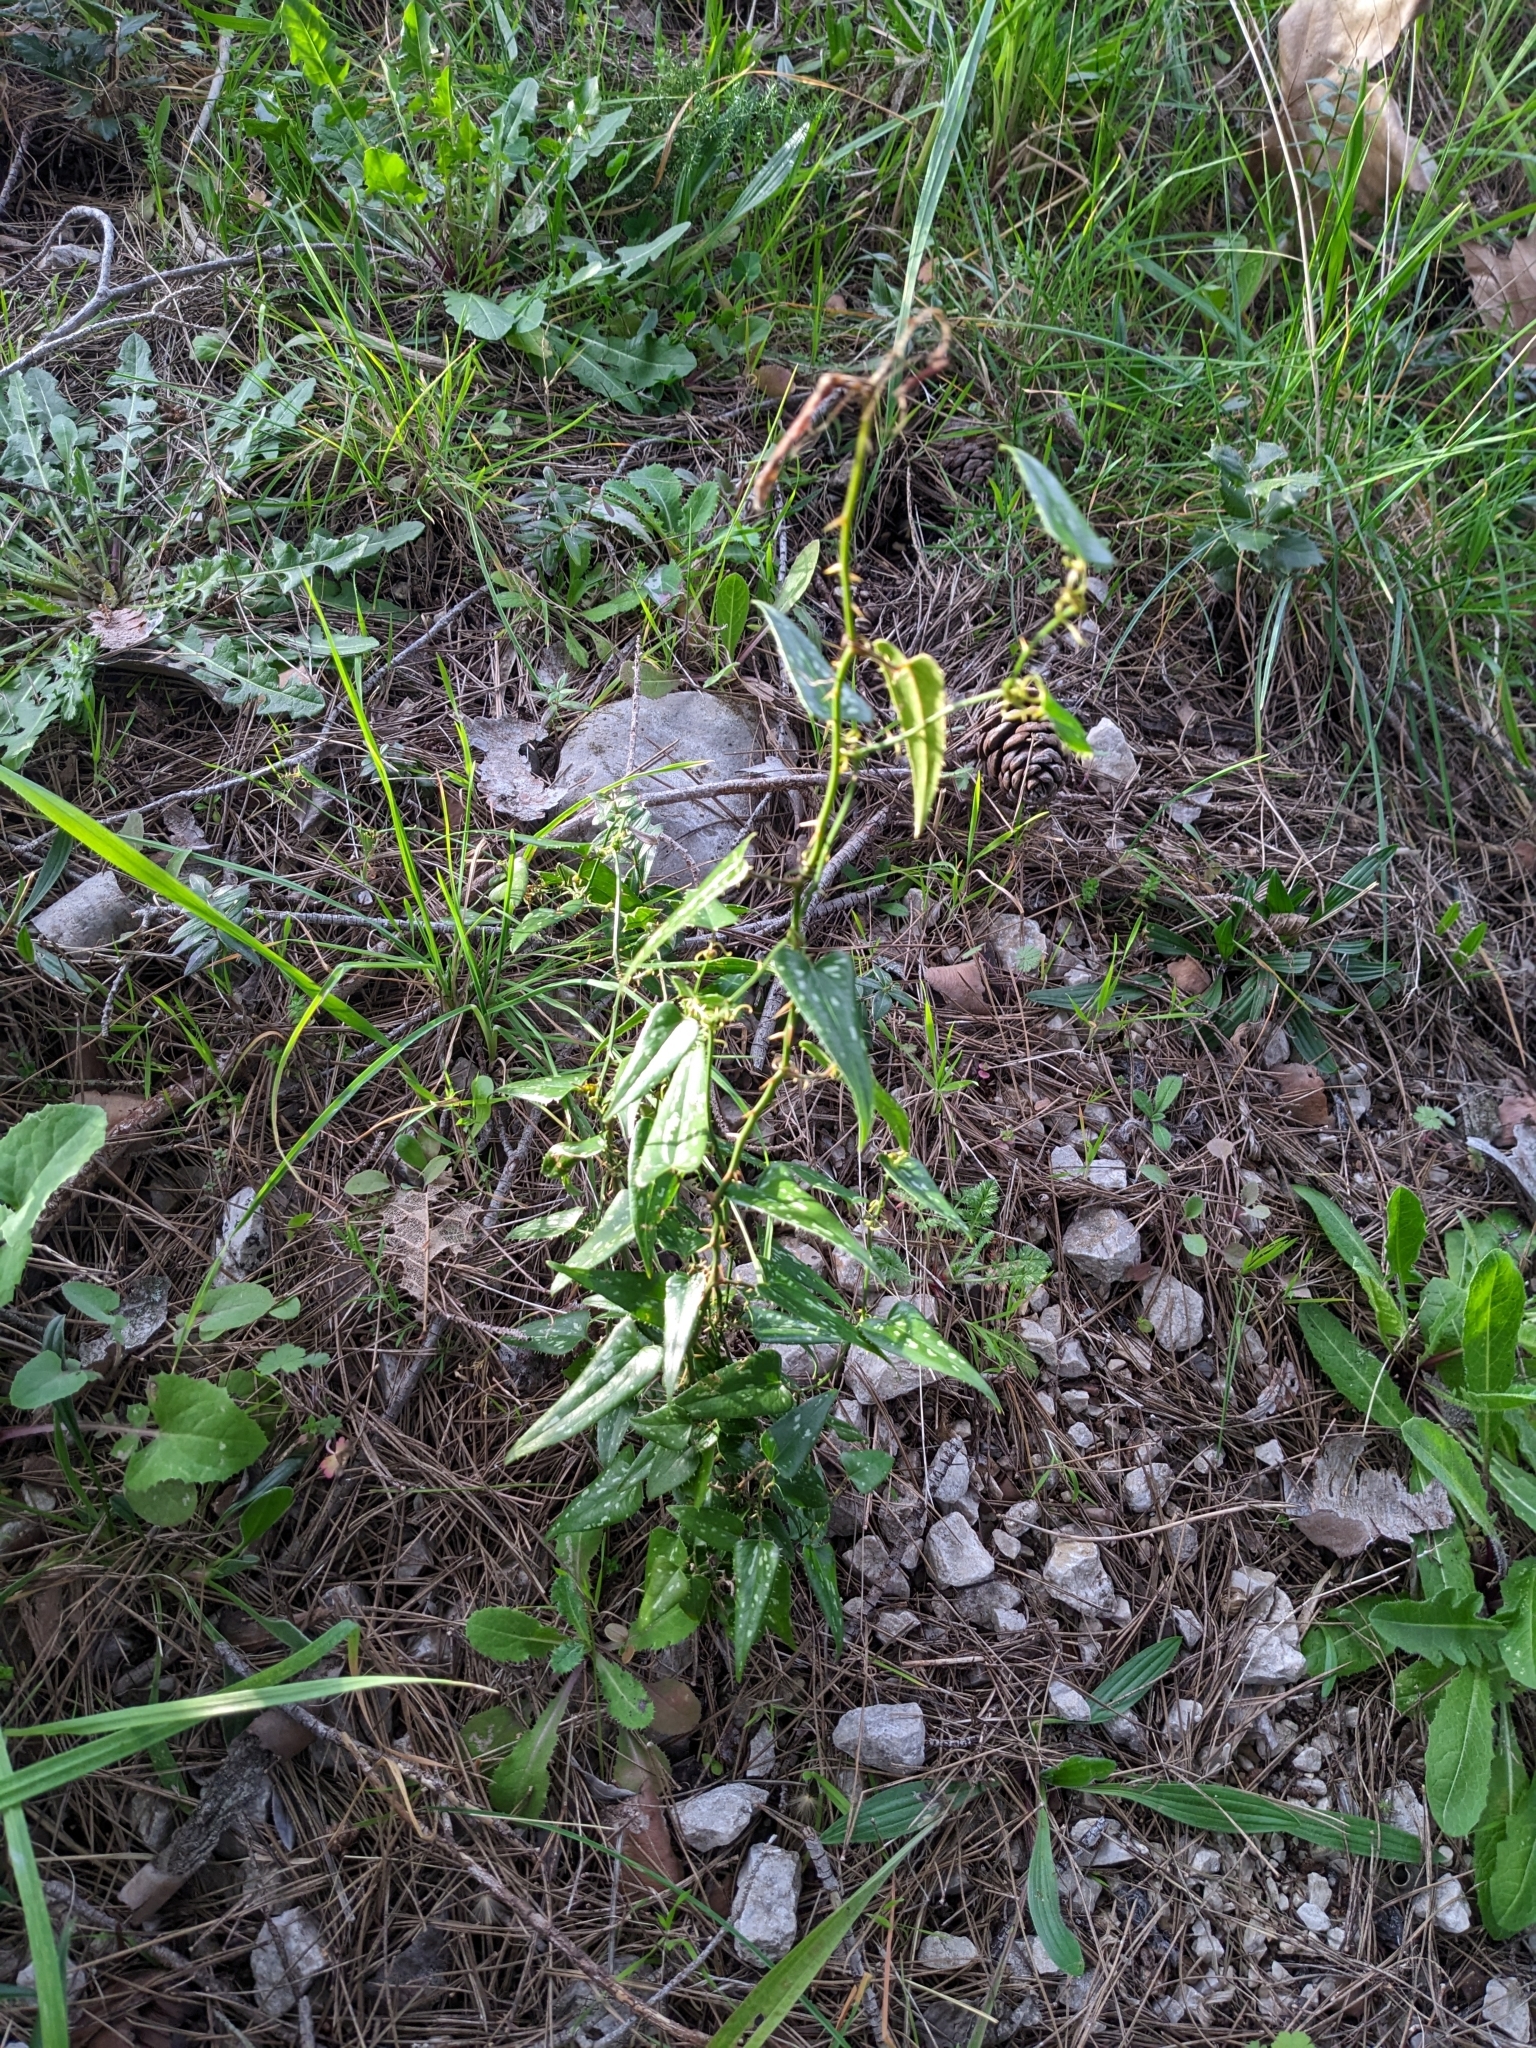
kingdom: Plantae
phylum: Tracheophyta
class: Liliopsida
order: Liliales
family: Smilacaceae
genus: Smilax
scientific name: Smilax aspera
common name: Common smilax
